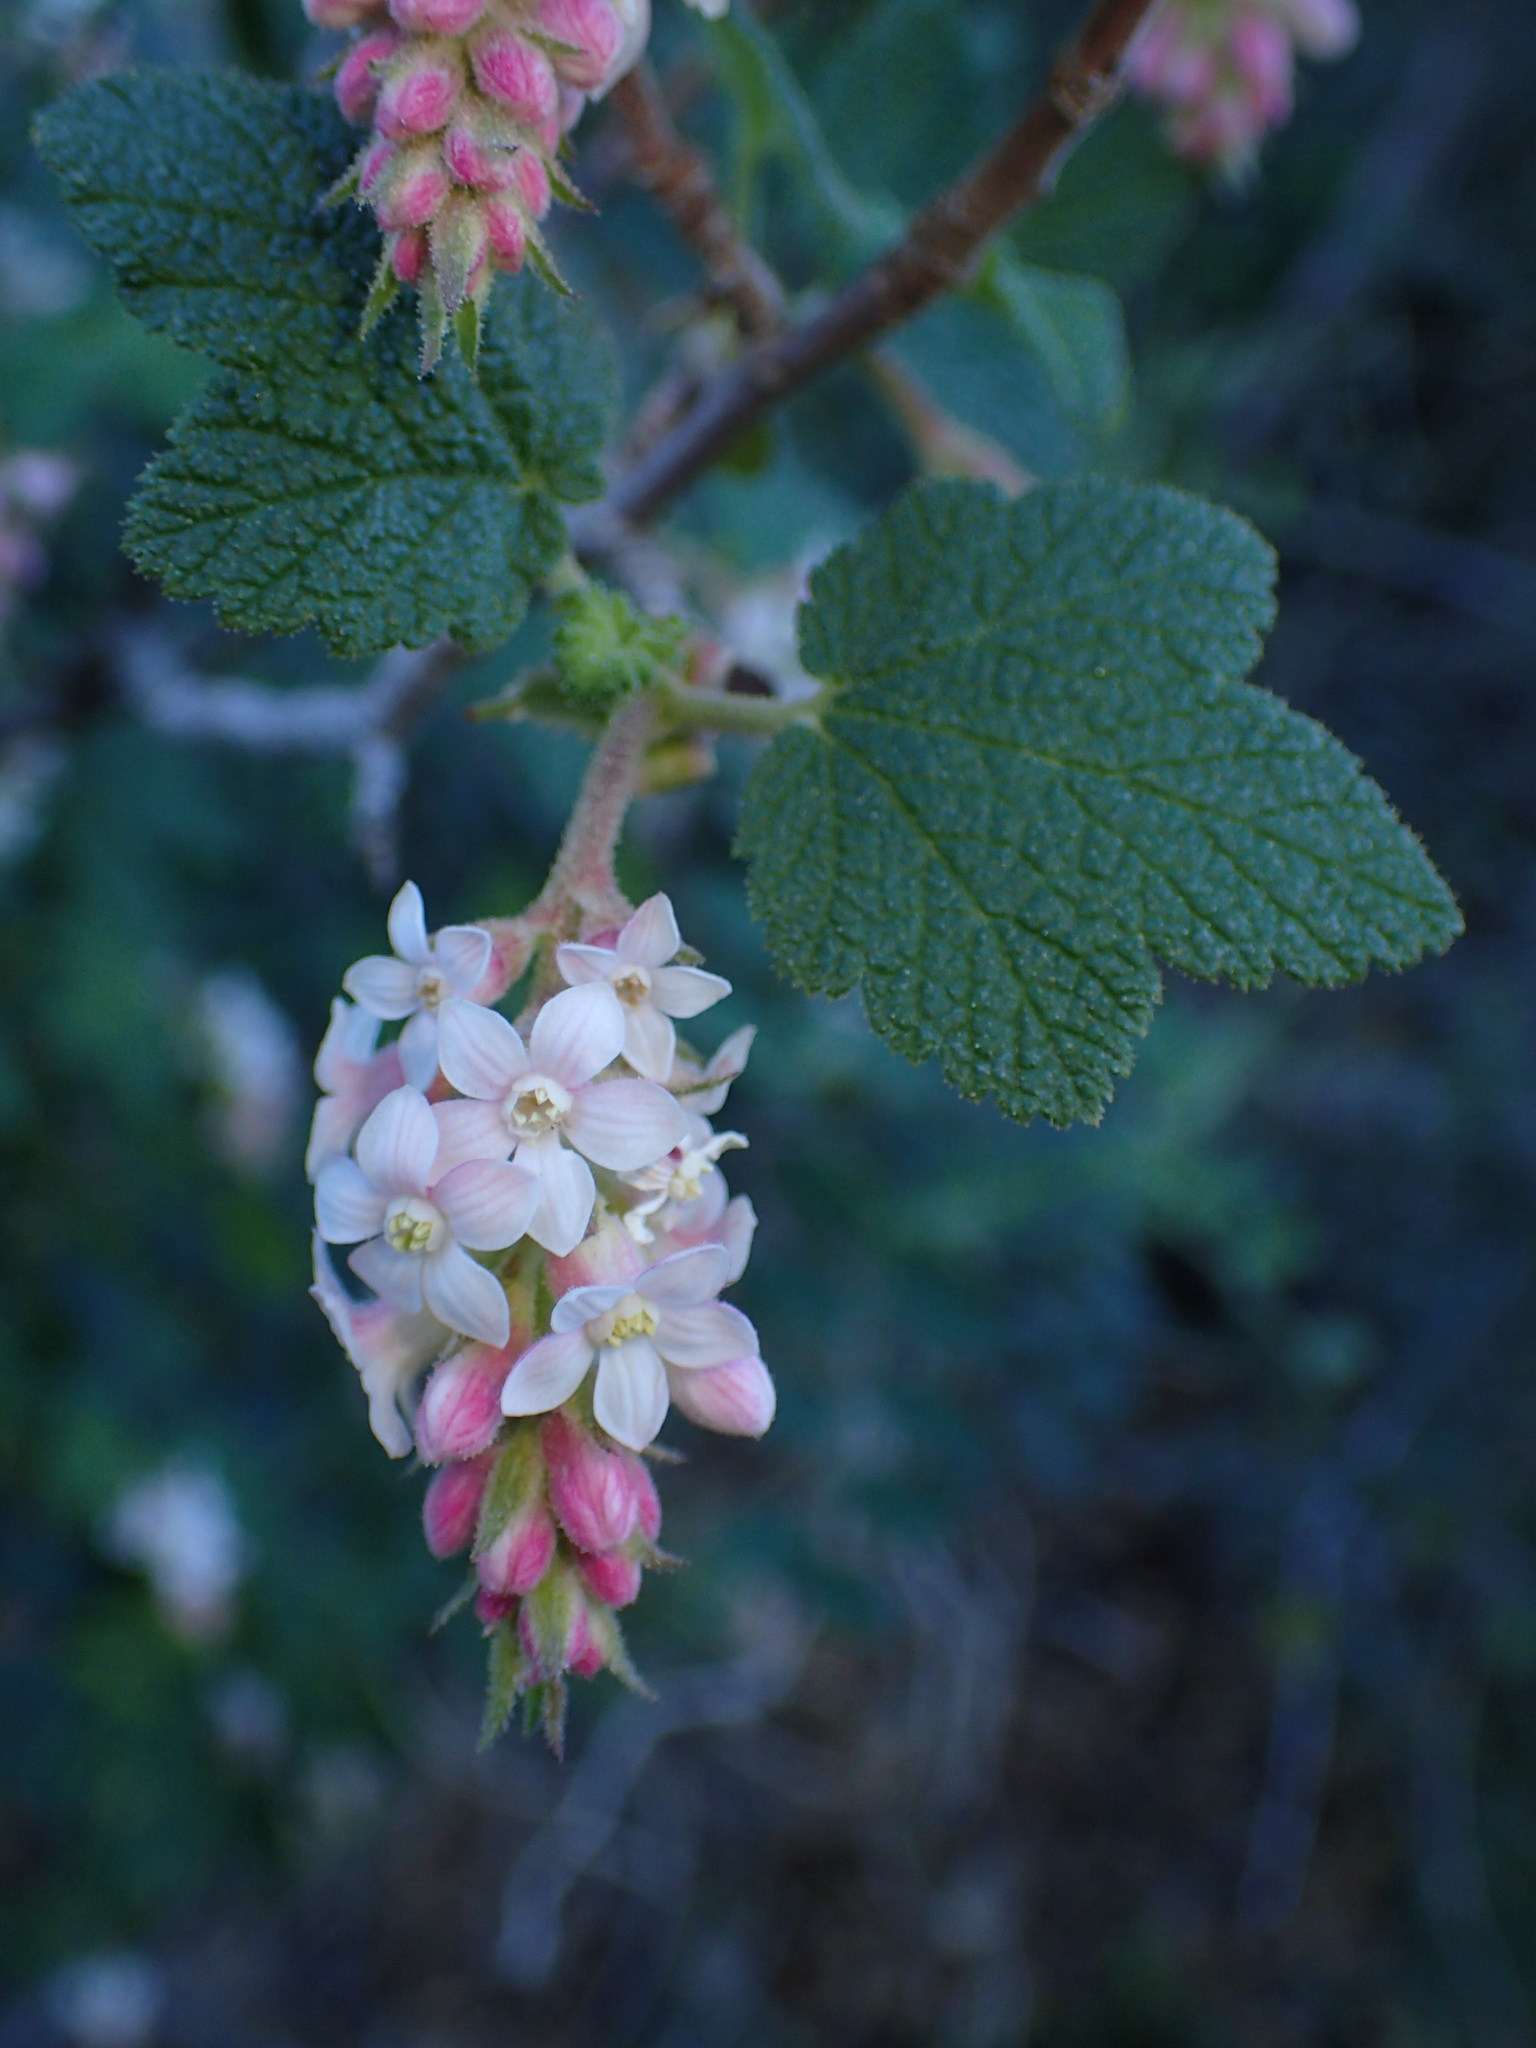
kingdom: Plantae
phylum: Tracheophyta
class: Magnoliopsida
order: Saxifragales
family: Grossulariaceae
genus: Ribes
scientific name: Ribes malvaceum
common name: Chaparral currant
